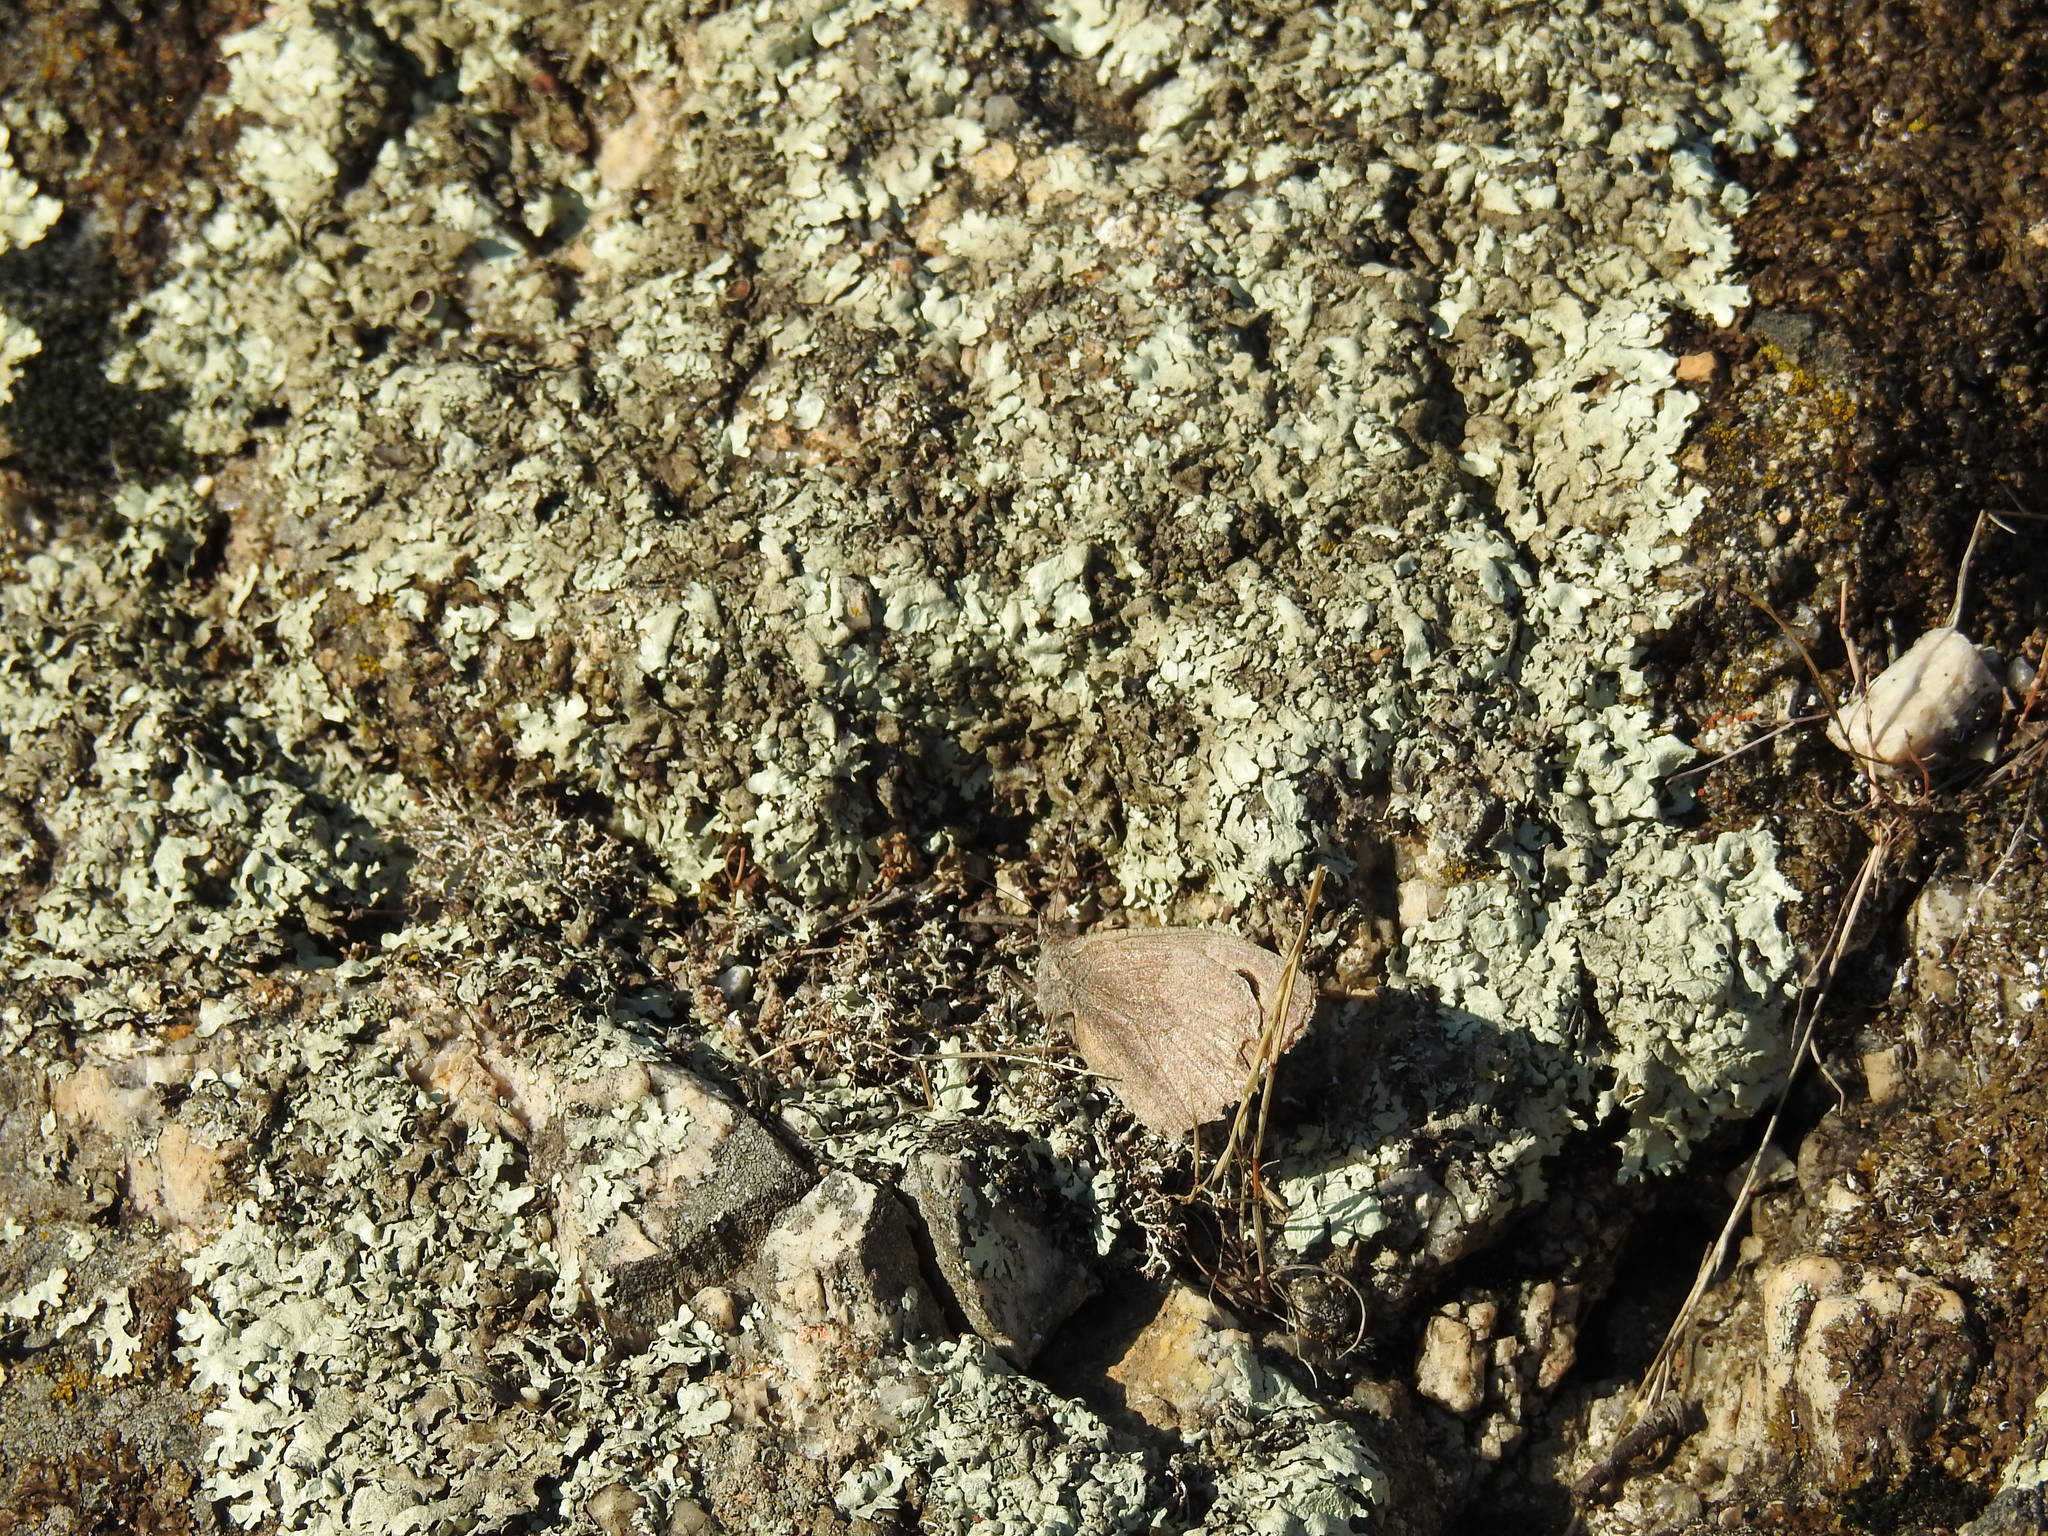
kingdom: Animalia
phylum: Arthropoda
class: Insecta
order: Lepidoptera
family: Nymphalidae
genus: Hipparchia
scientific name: Hipparchia statilinus
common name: Tree grayling
